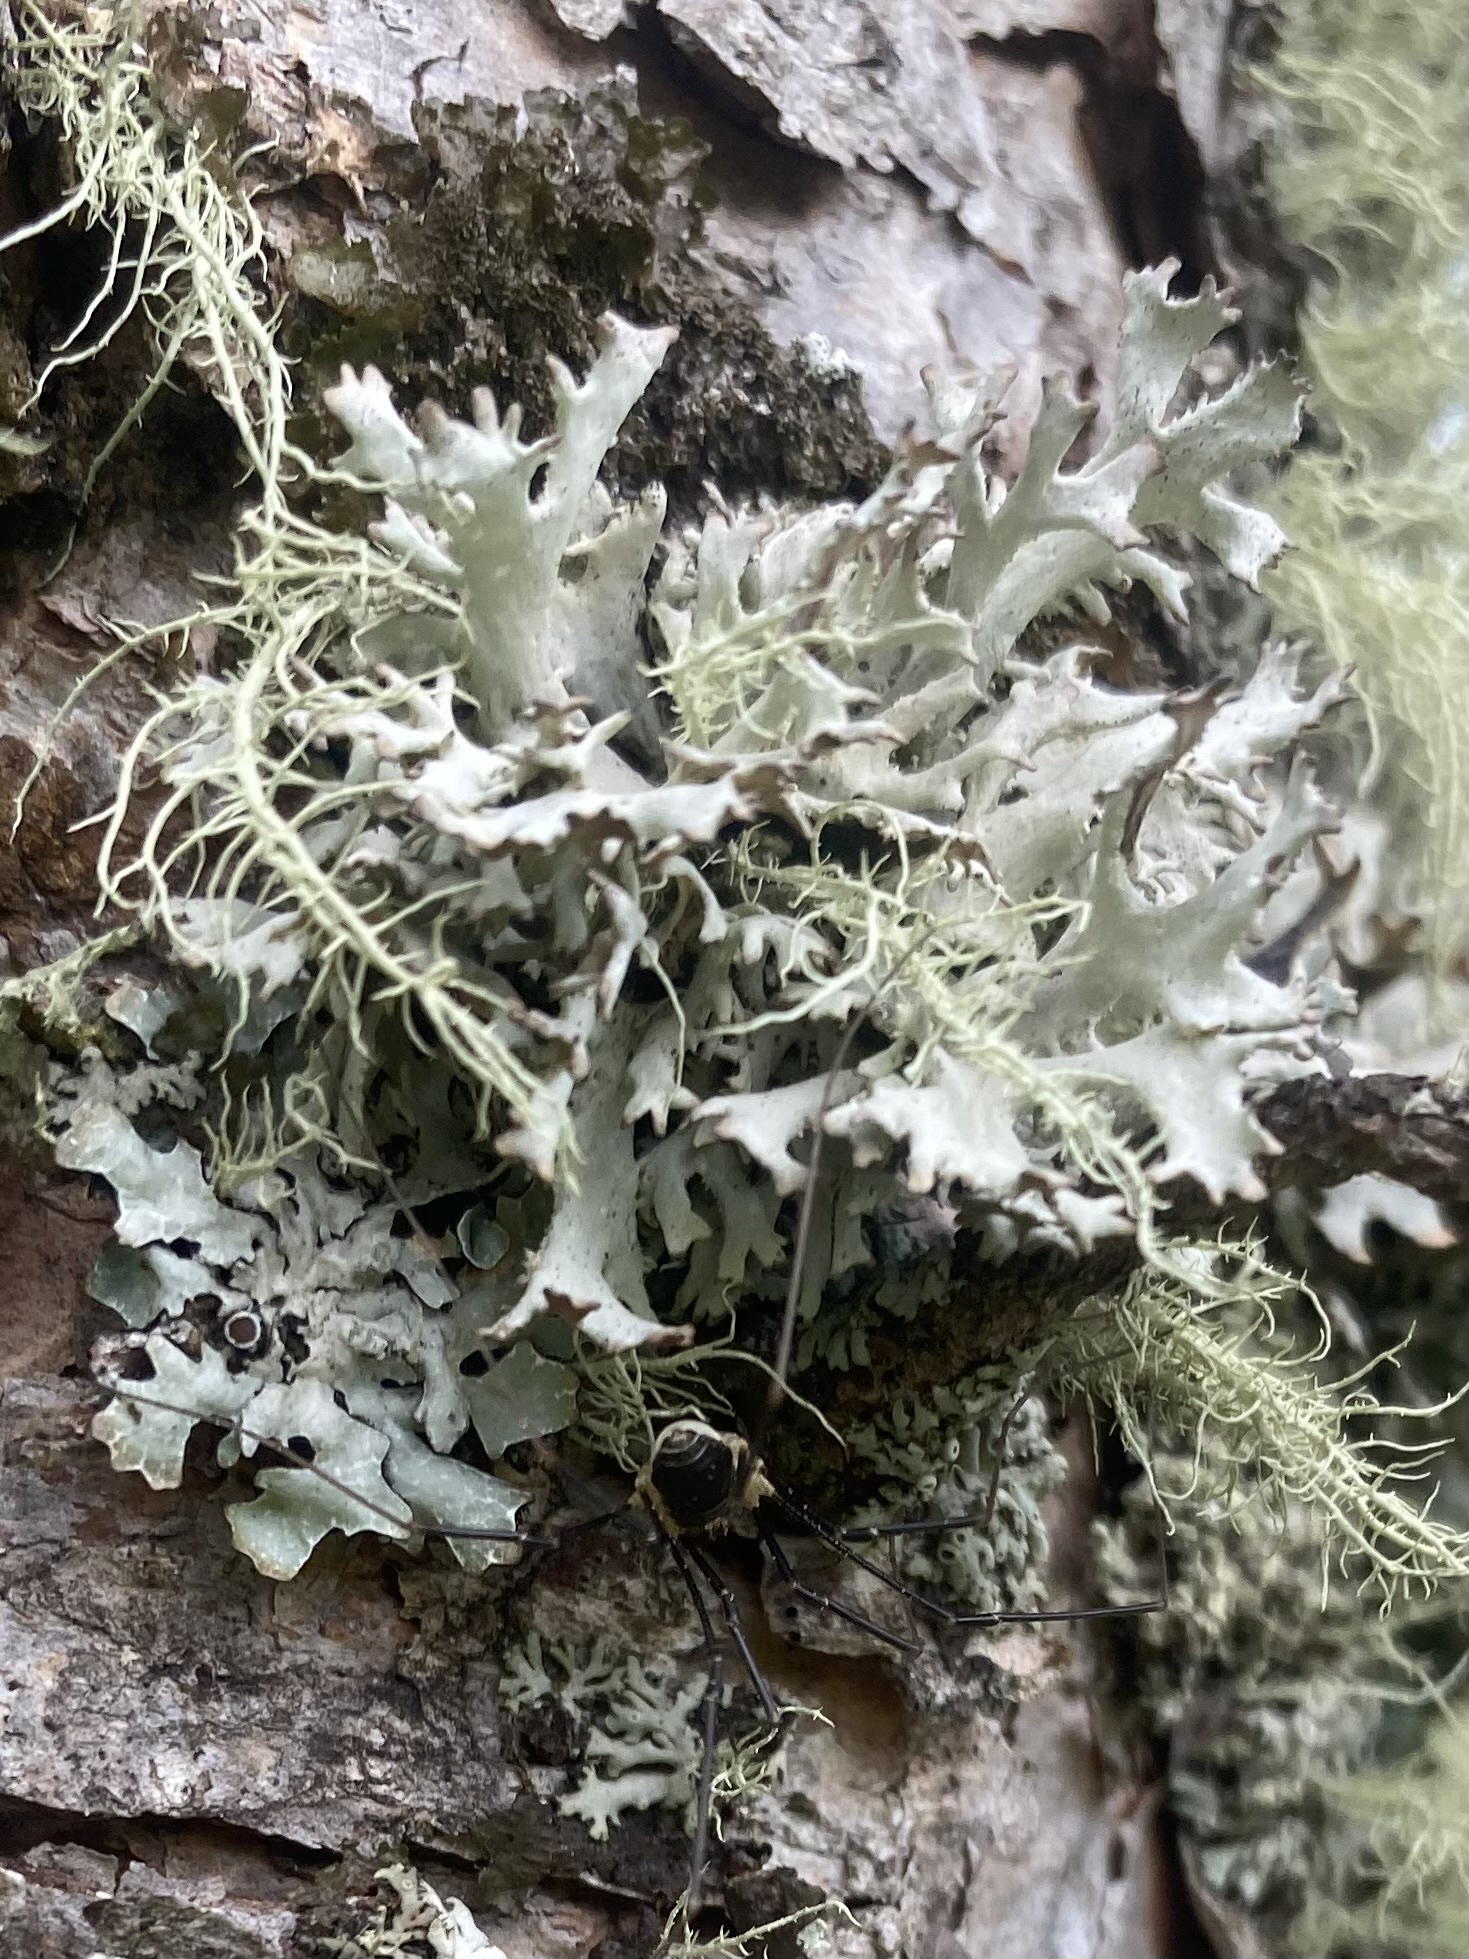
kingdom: Fungi
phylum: Ascomycota
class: Lecanoromycetes
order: Lecanorales
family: Parmeliaceae
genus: Pseudevernia
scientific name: Pseudevernia furfuracea
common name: Tree moss
